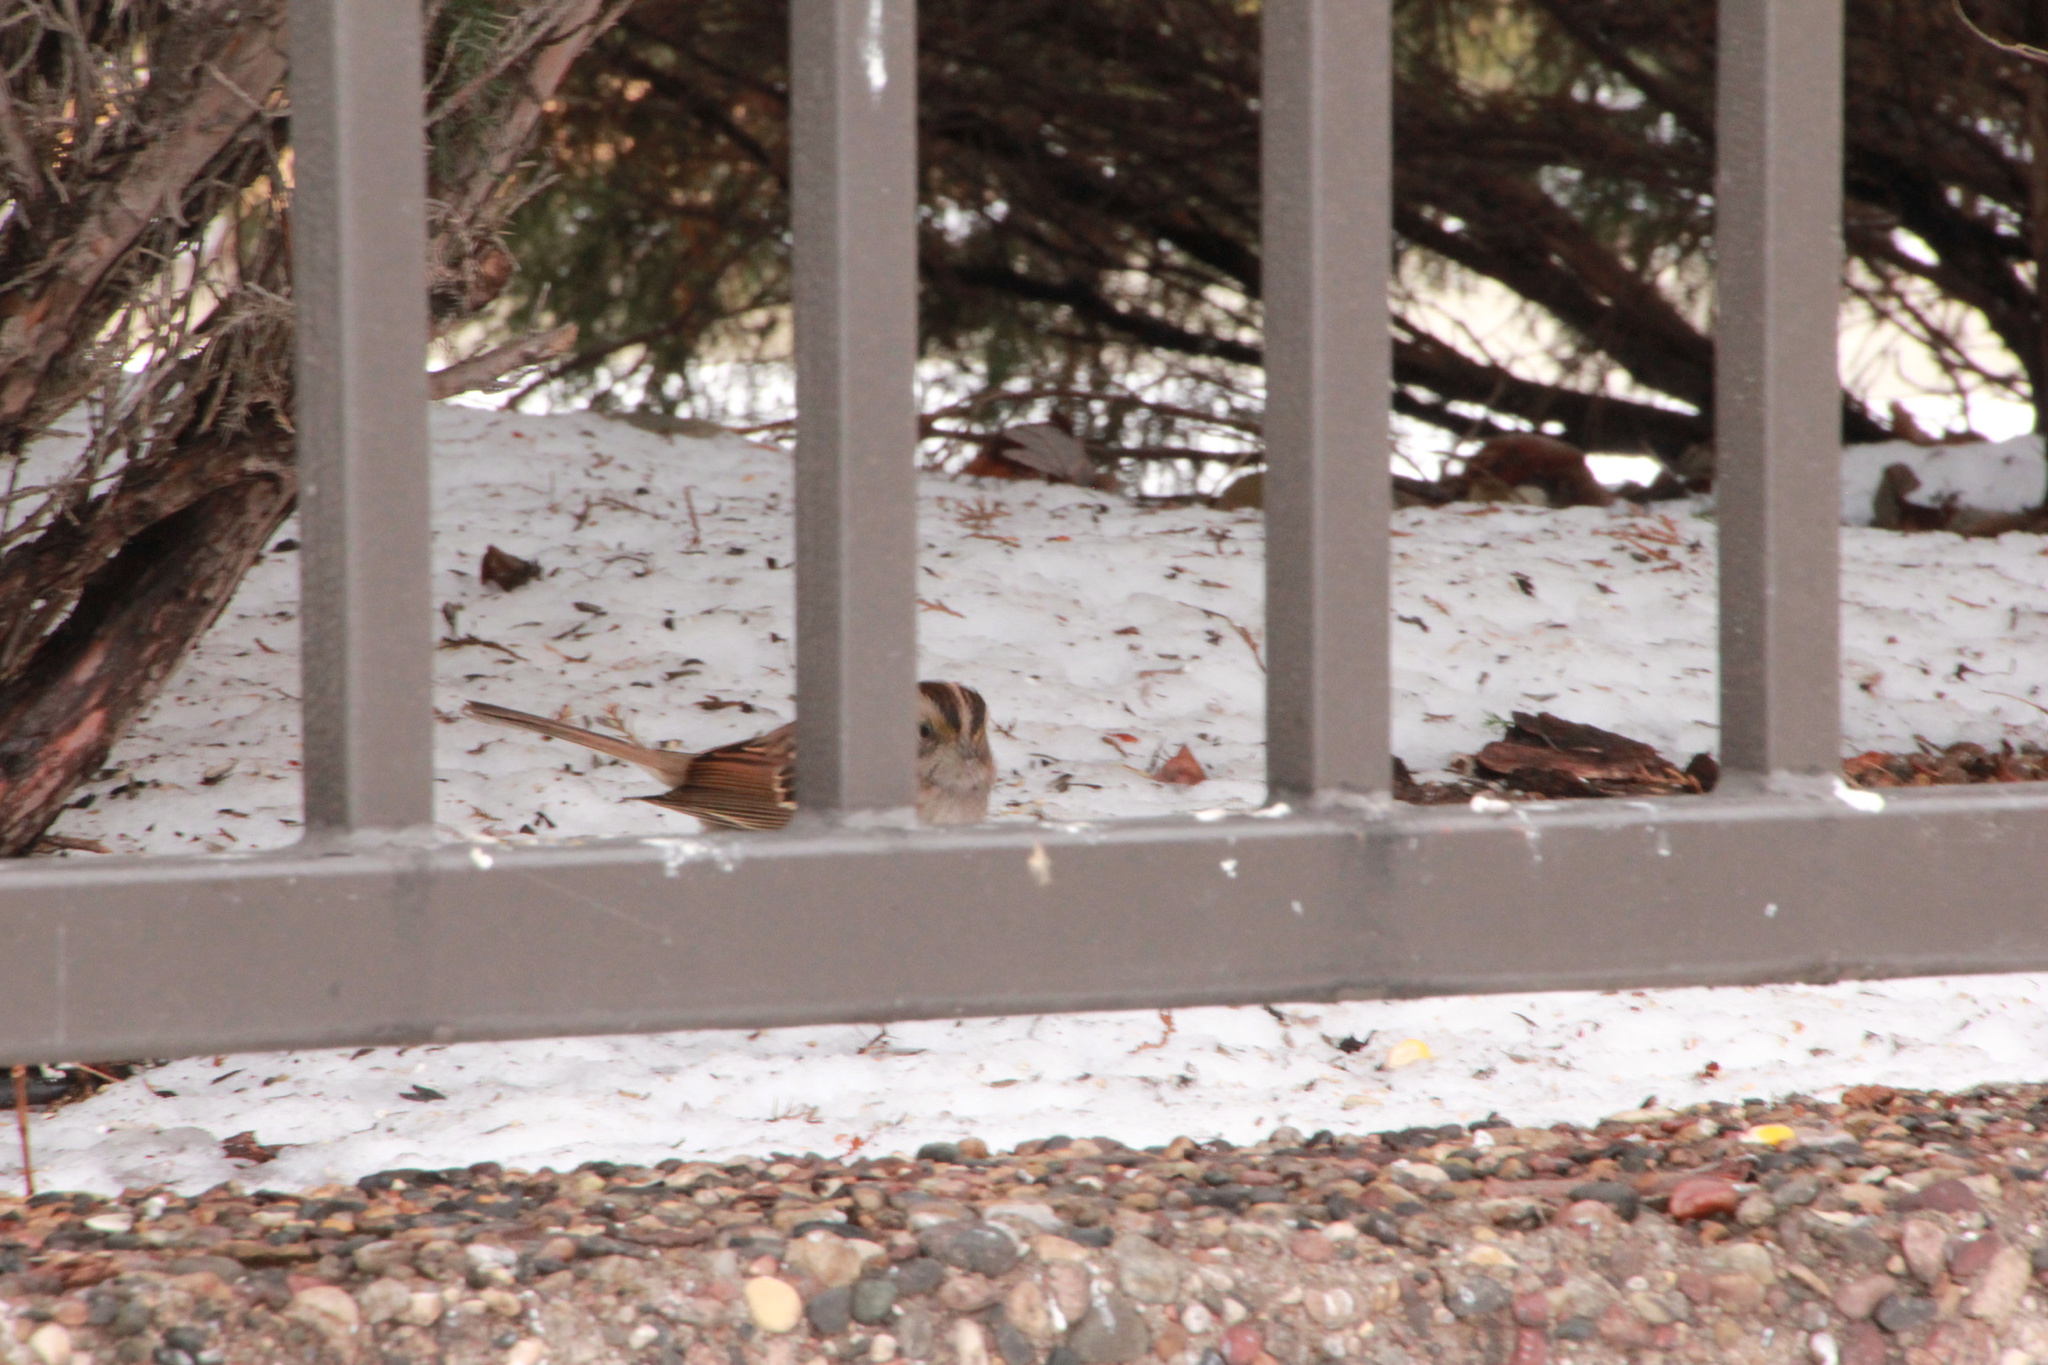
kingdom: Animalia
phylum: Chordata
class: Aves
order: Passeriformes
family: Passerellidae
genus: Zonotrichia
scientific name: Zonotrichia albicollis
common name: White-throated sparrow
